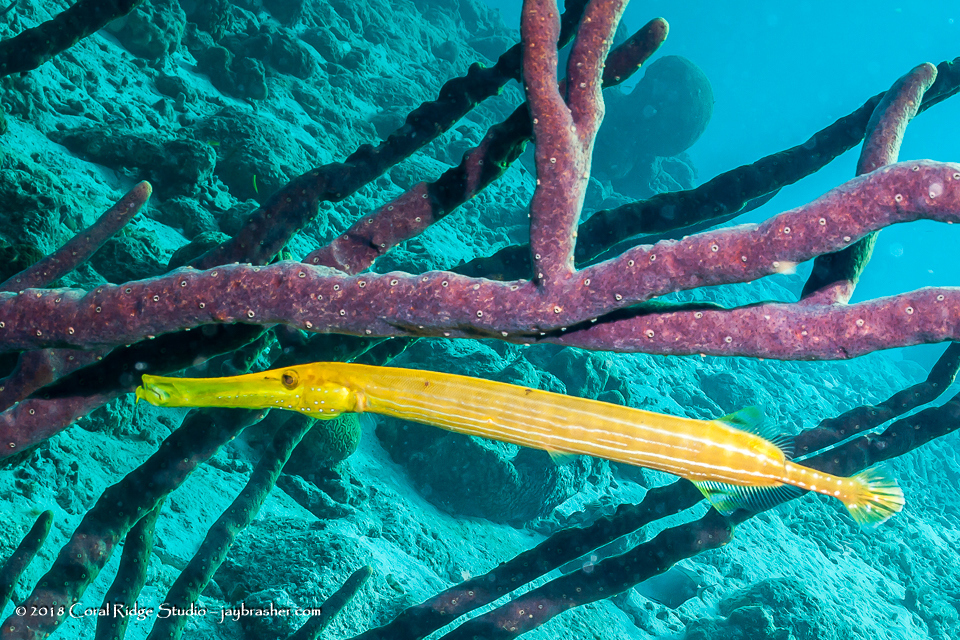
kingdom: Animalia
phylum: Chordata
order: Syngnathiformes
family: Aulostomidae
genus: Aulostomus
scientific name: Aulostomus maculatus
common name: West atlantic trumpetfish
